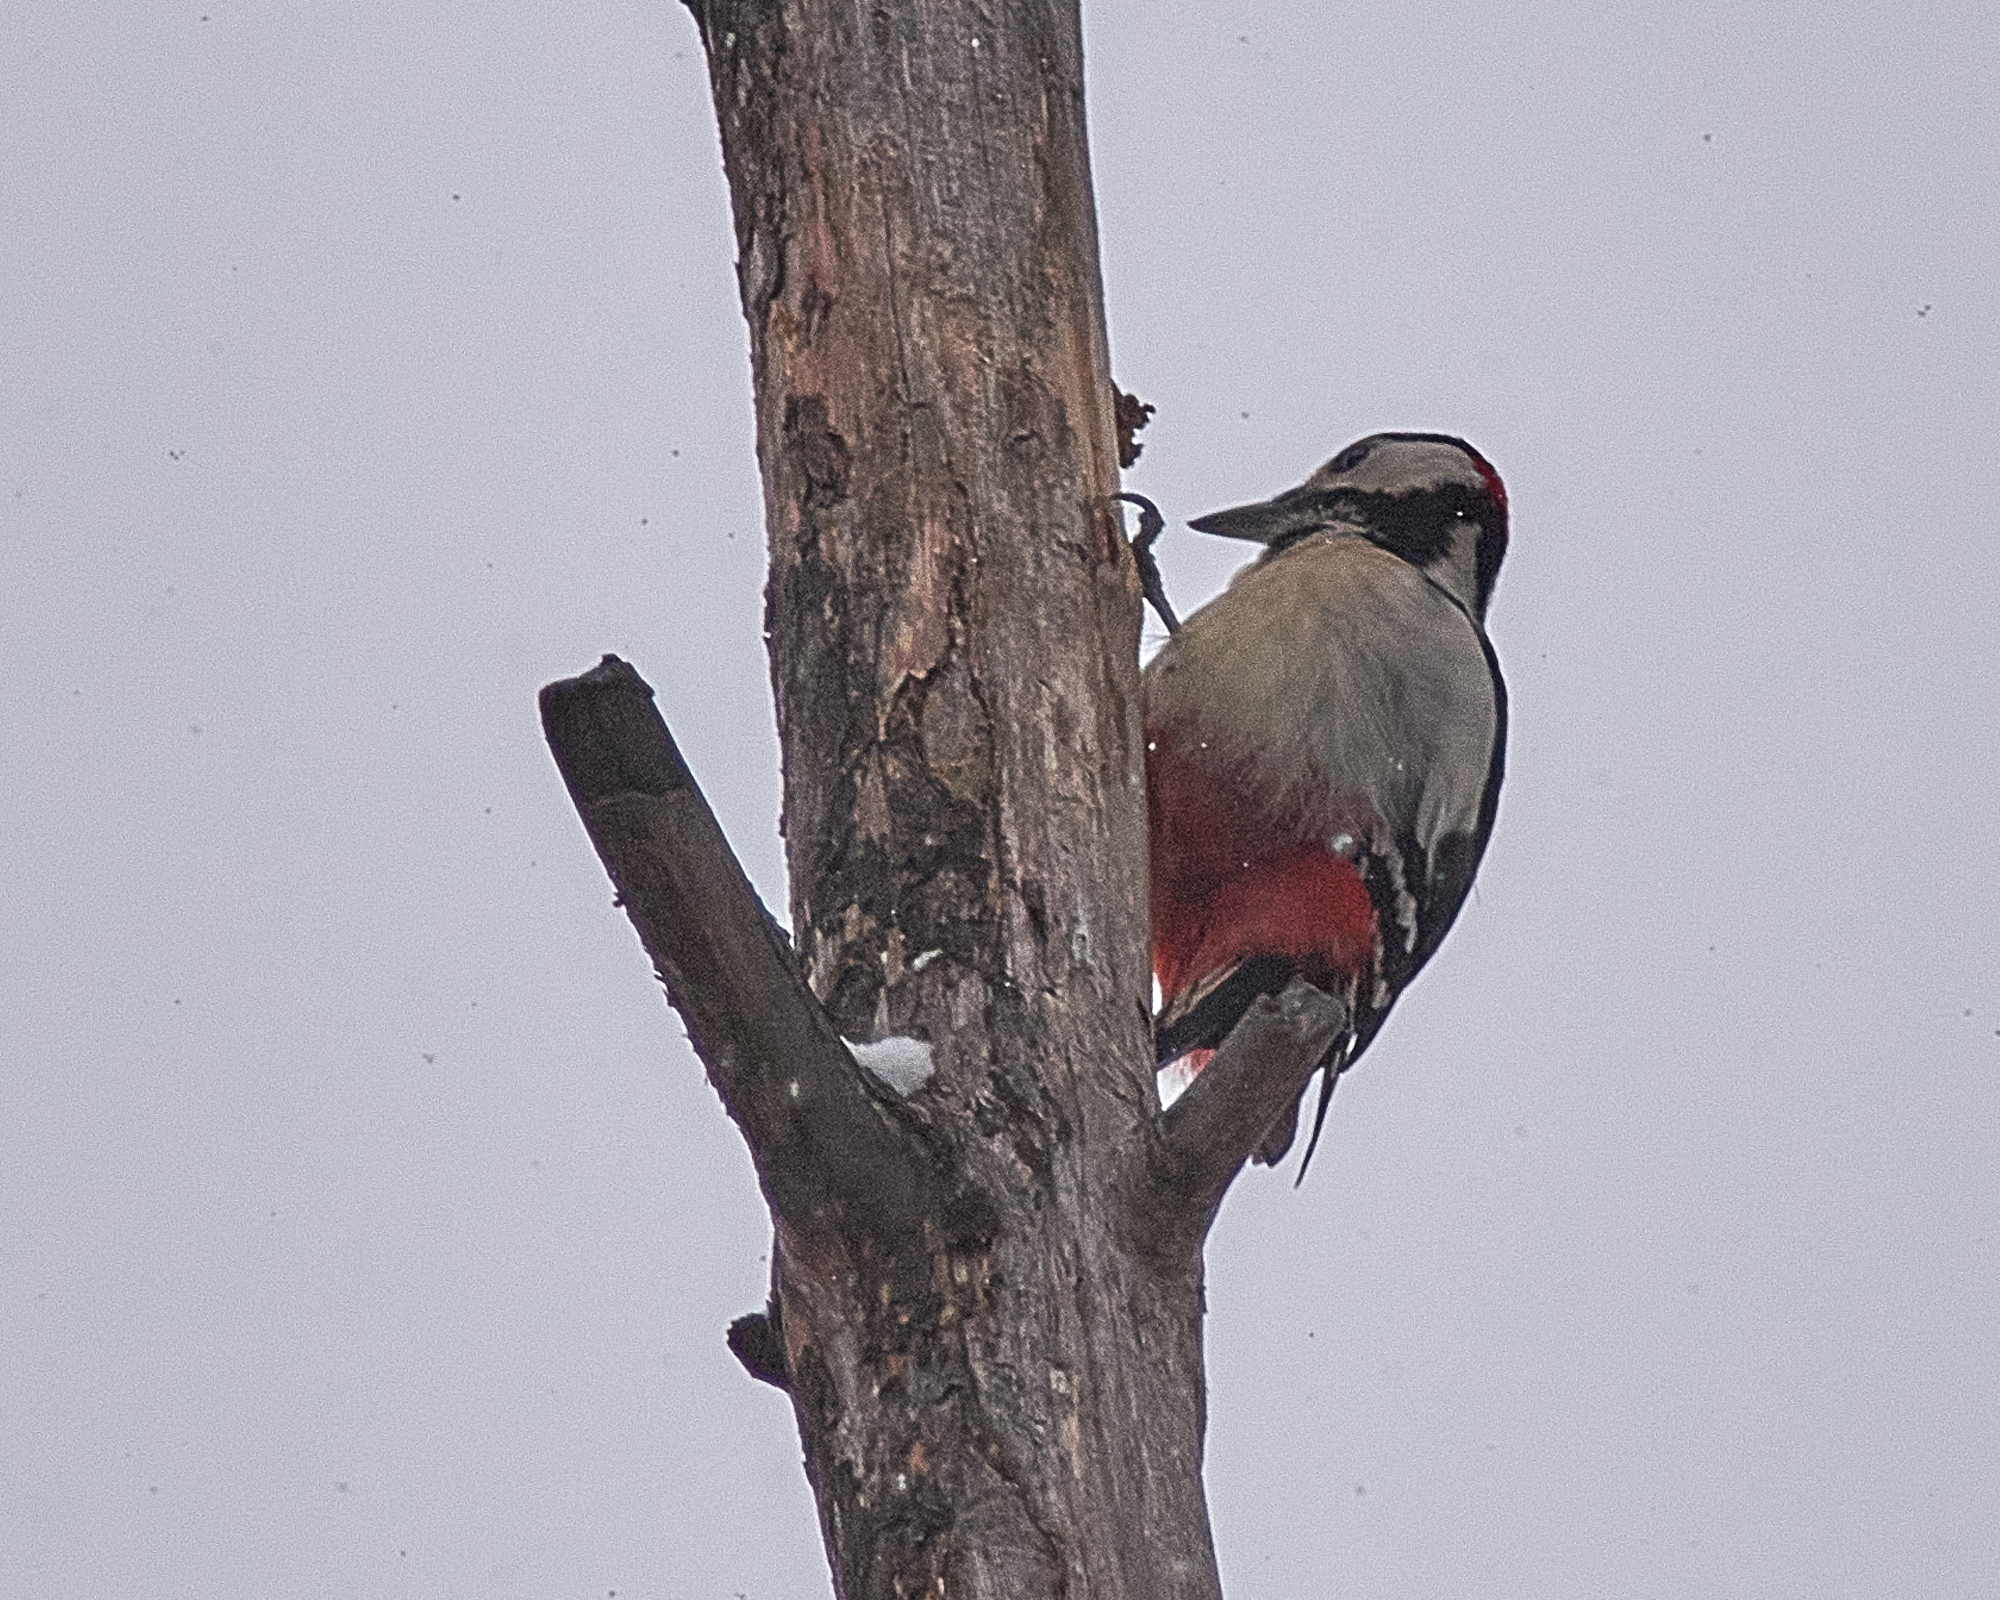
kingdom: Animalia
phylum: Chordata
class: Aves
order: Piciformes
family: Picidae
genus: Dendrocopos
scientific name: Dendrocopos major
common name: Great spotted woodpecker
